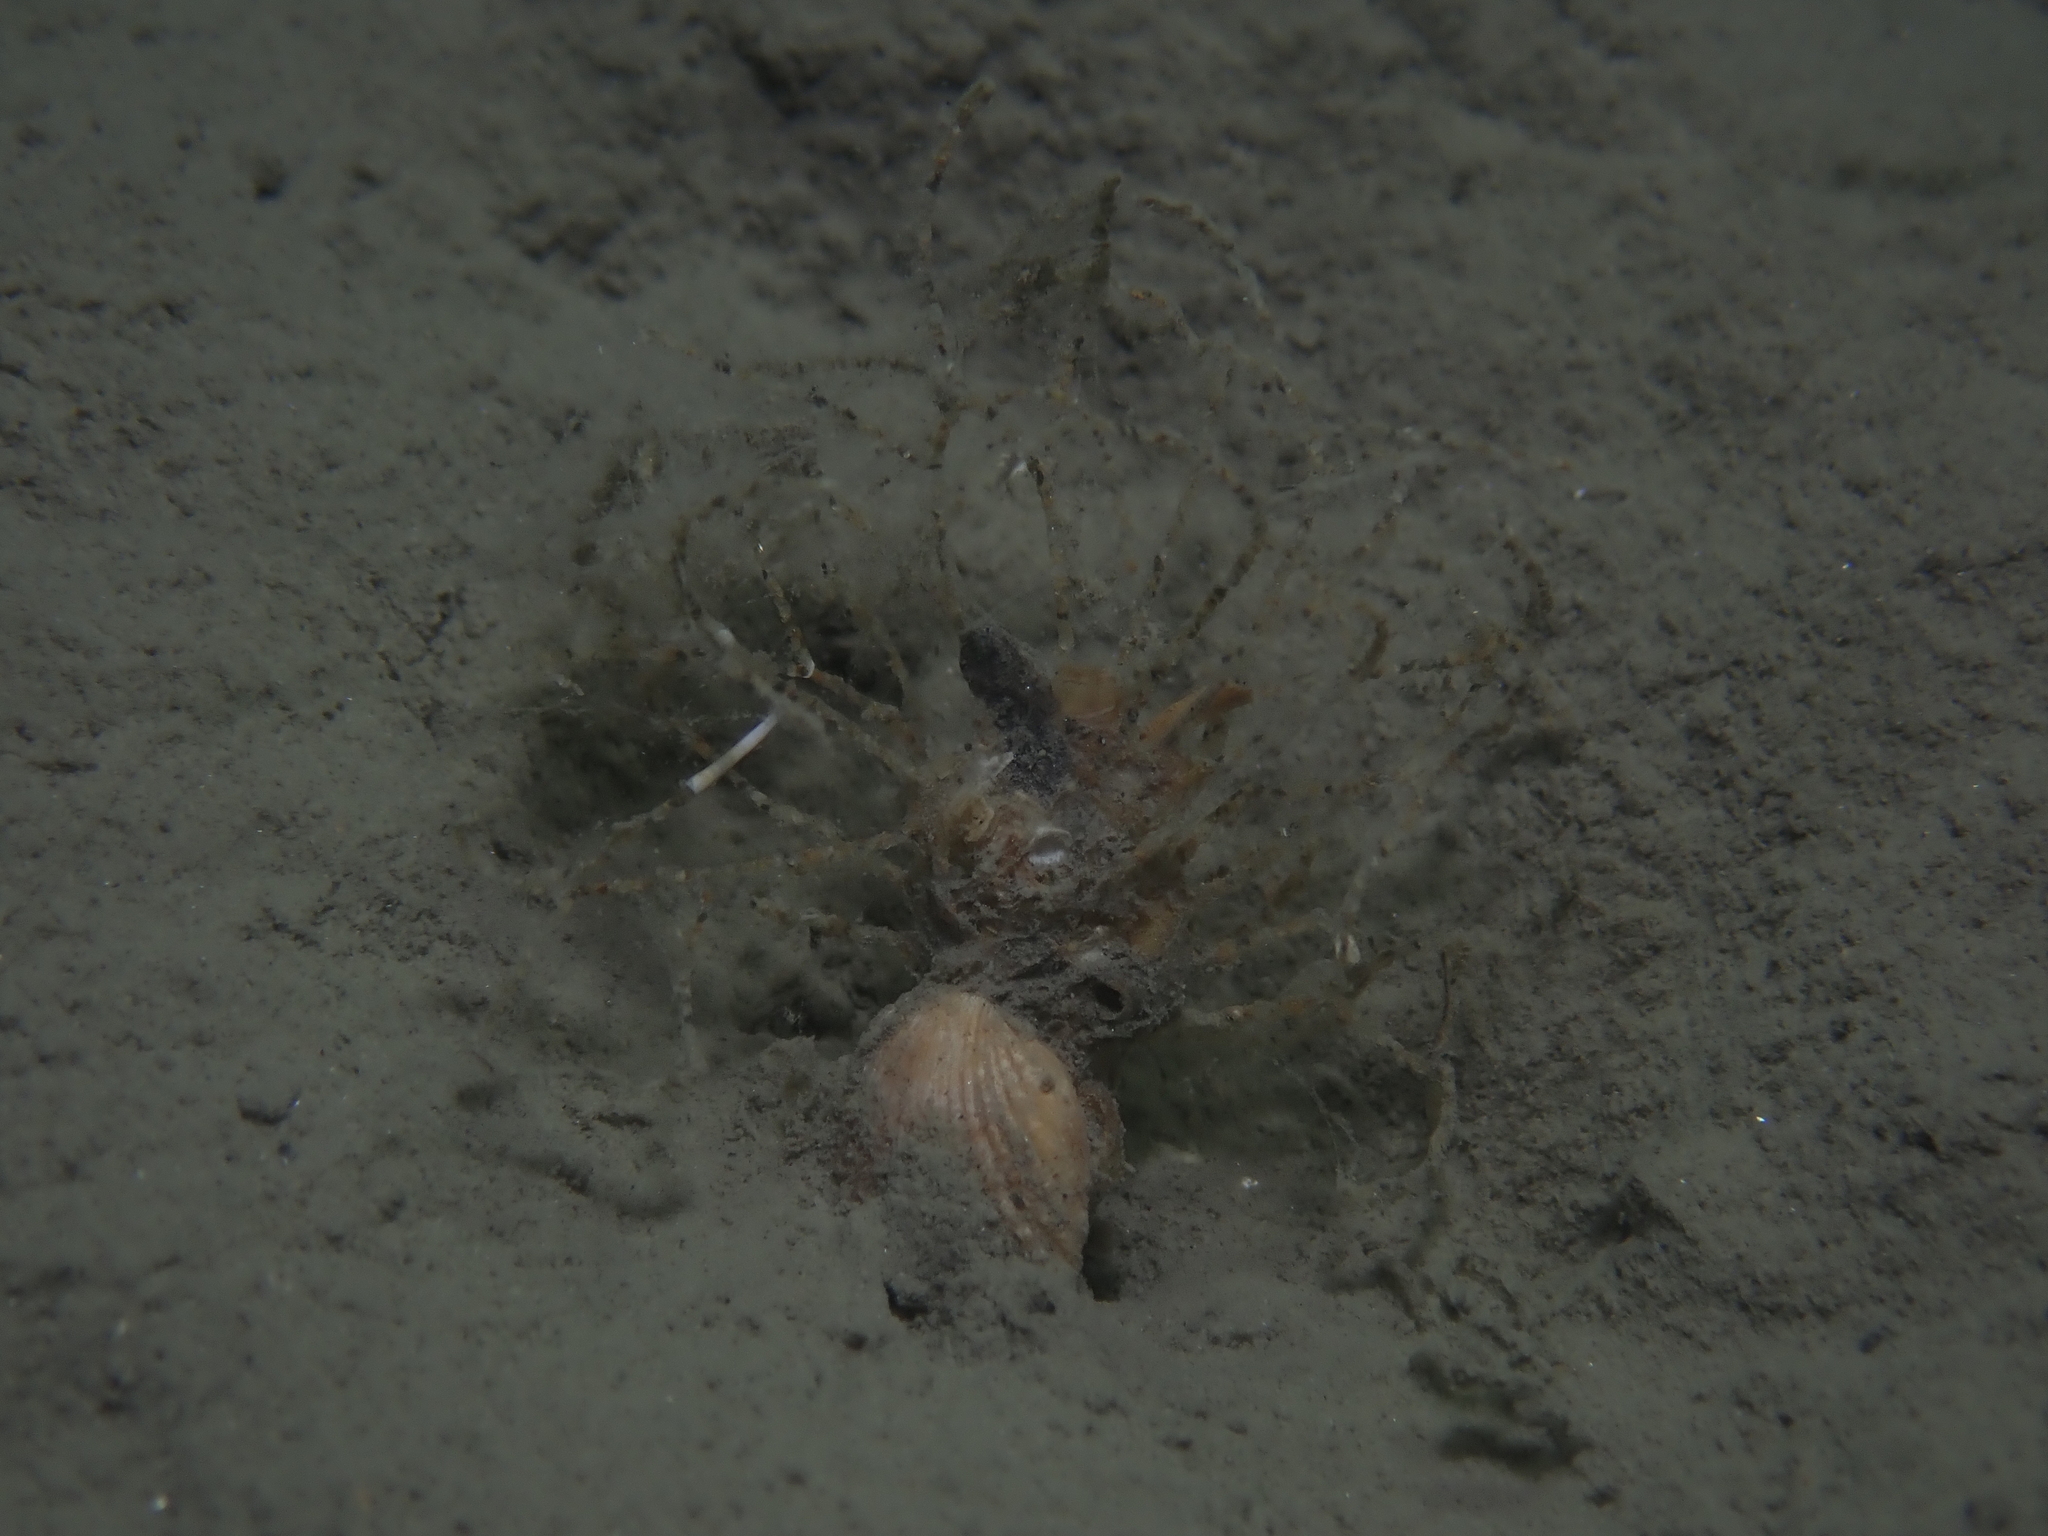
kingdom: Animalia
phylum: Annelida
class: Polychaeta
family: Terebellidae
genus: Lanice
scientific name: Lanice conchilega
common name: Sand mason
